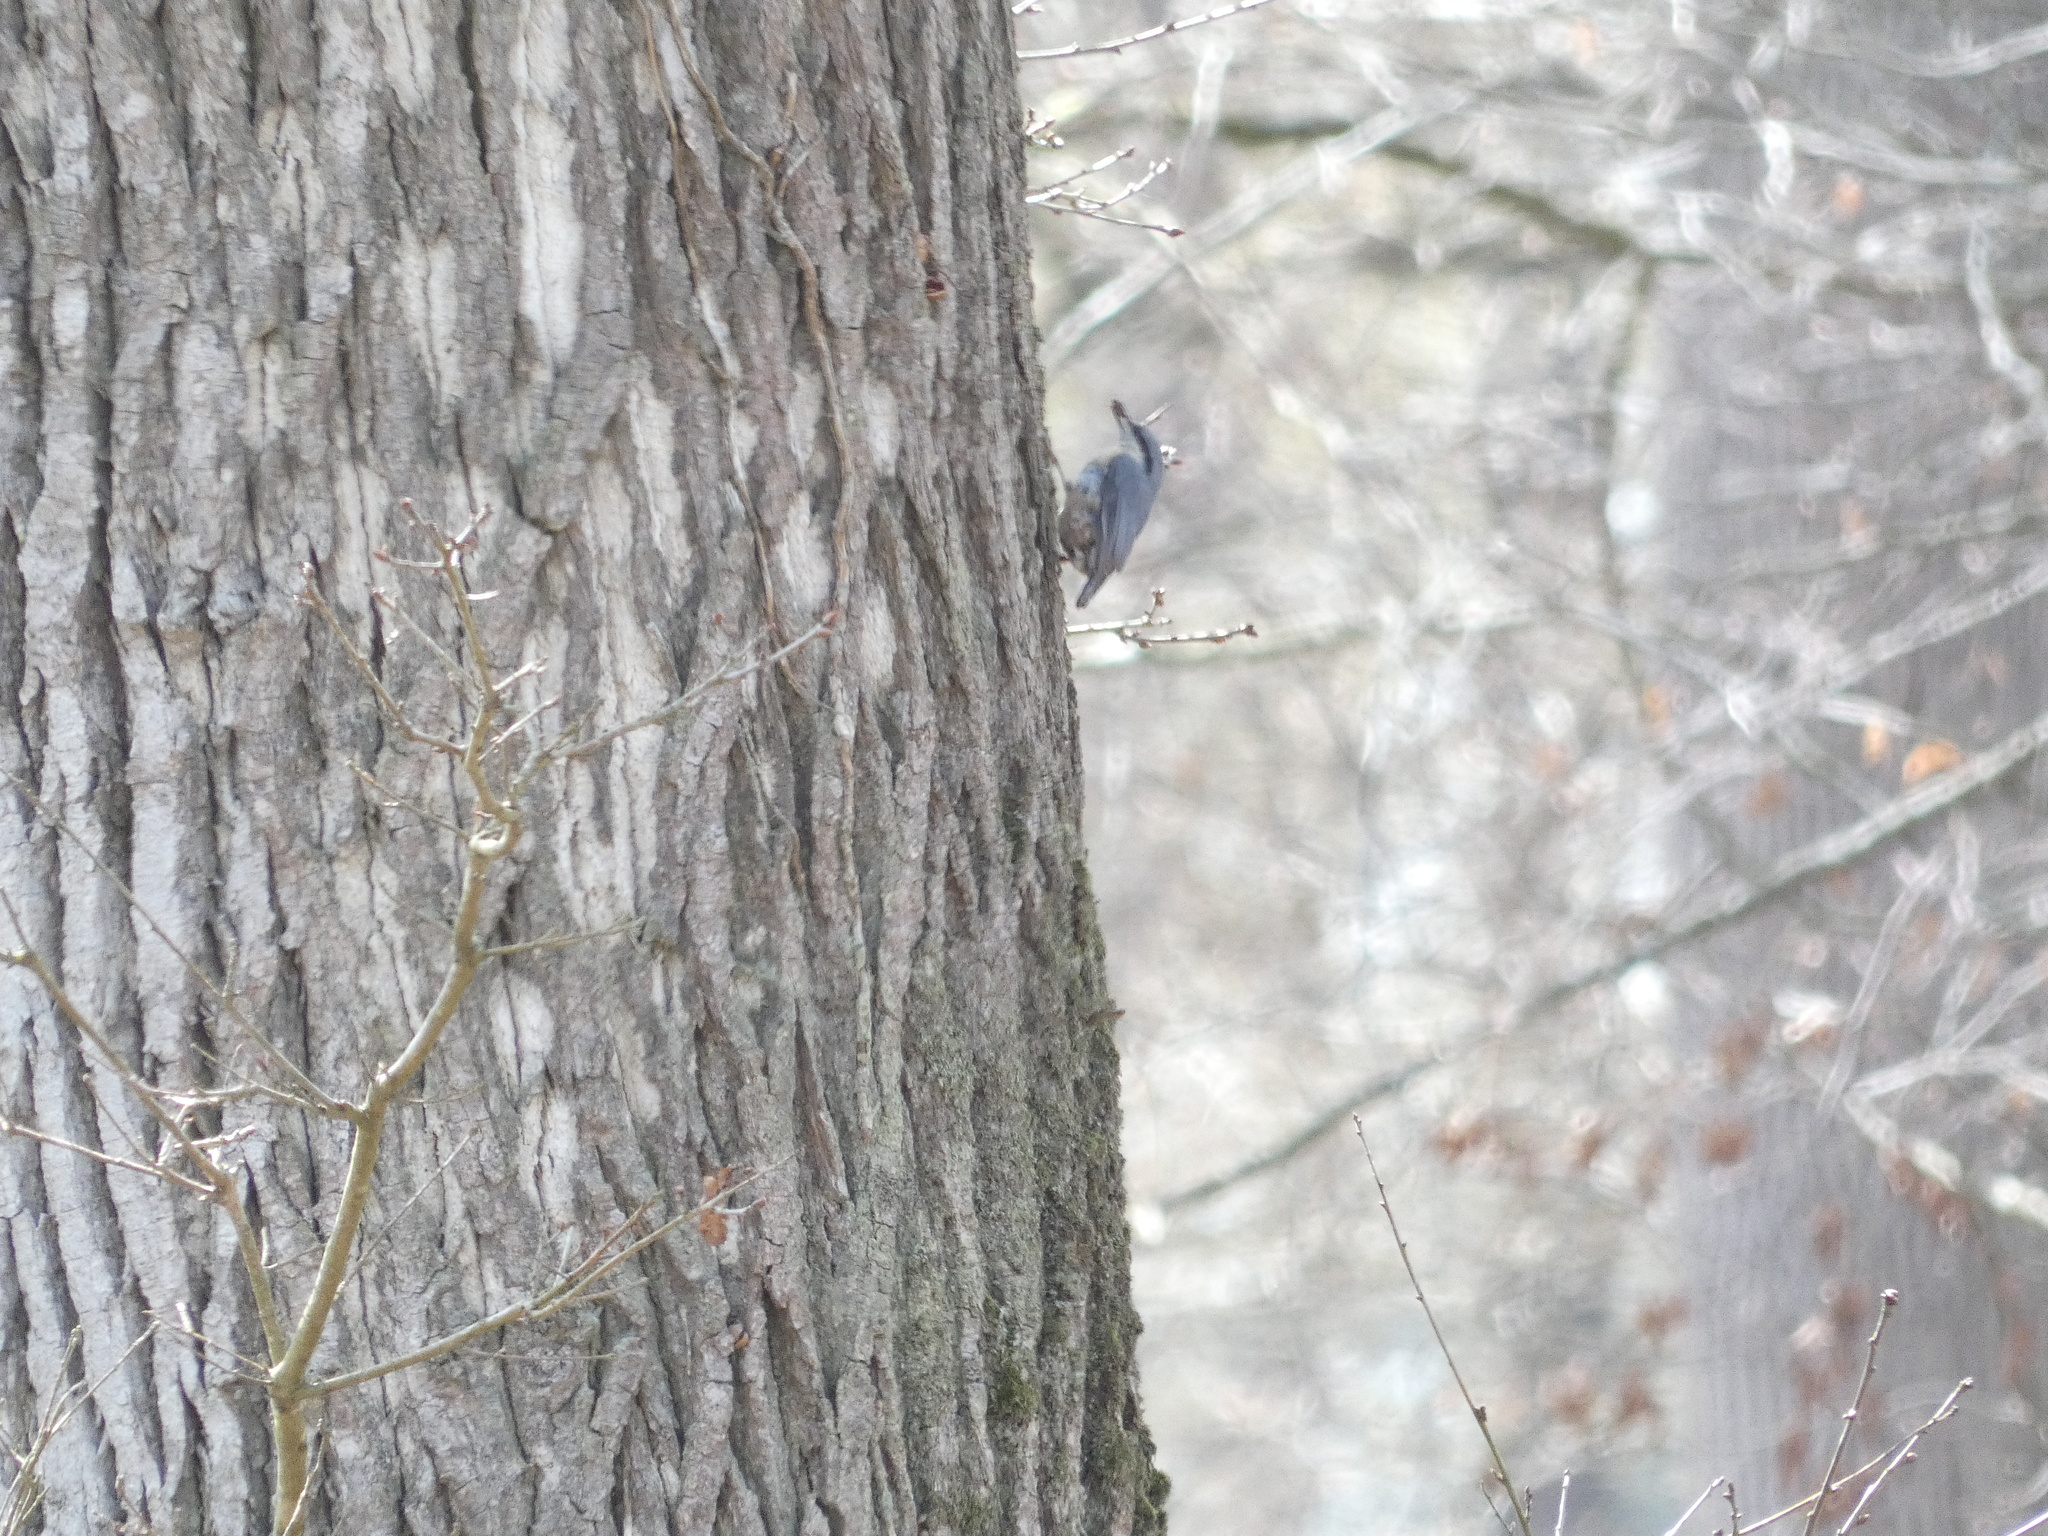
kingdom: Animalia
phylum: Chordata
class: Aves
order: Passeriformes
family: Sittidae
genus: Sitta
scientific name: Sitta europaea
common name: Eurasian nuthatch
